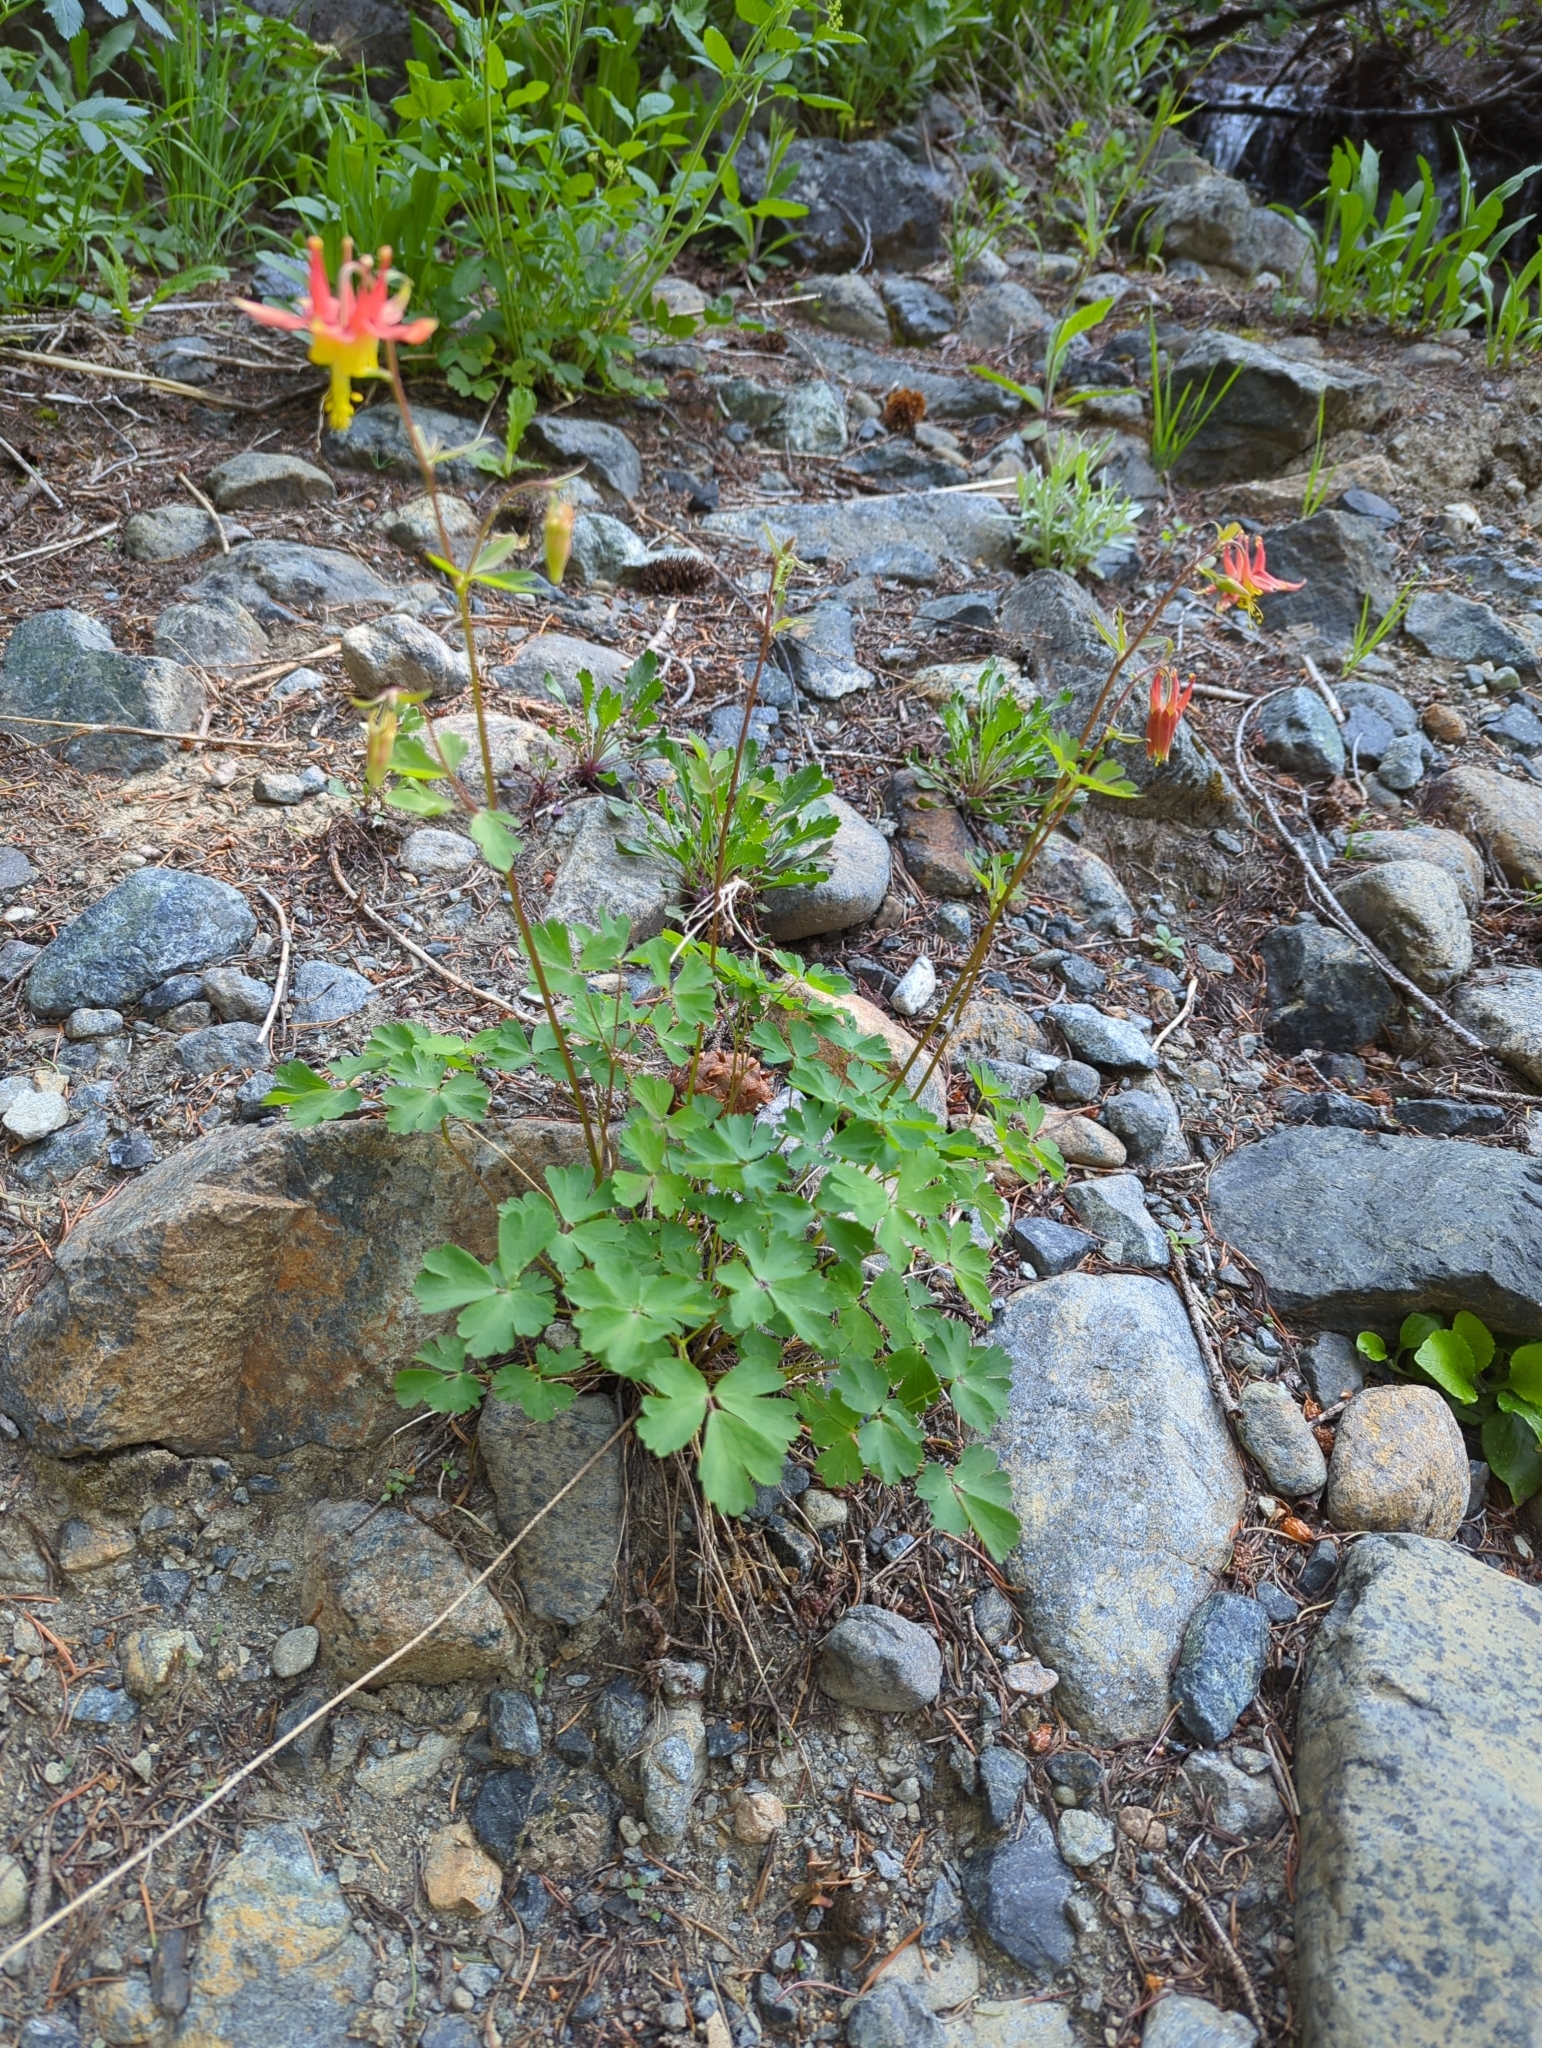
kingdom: Plantae
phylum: Tracheophyta
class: Magnoliopsida
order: Ranunculales
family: Ranunculaceae
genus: Aquilegia
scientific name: Aquilegia formosa
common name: Sitka columbine
